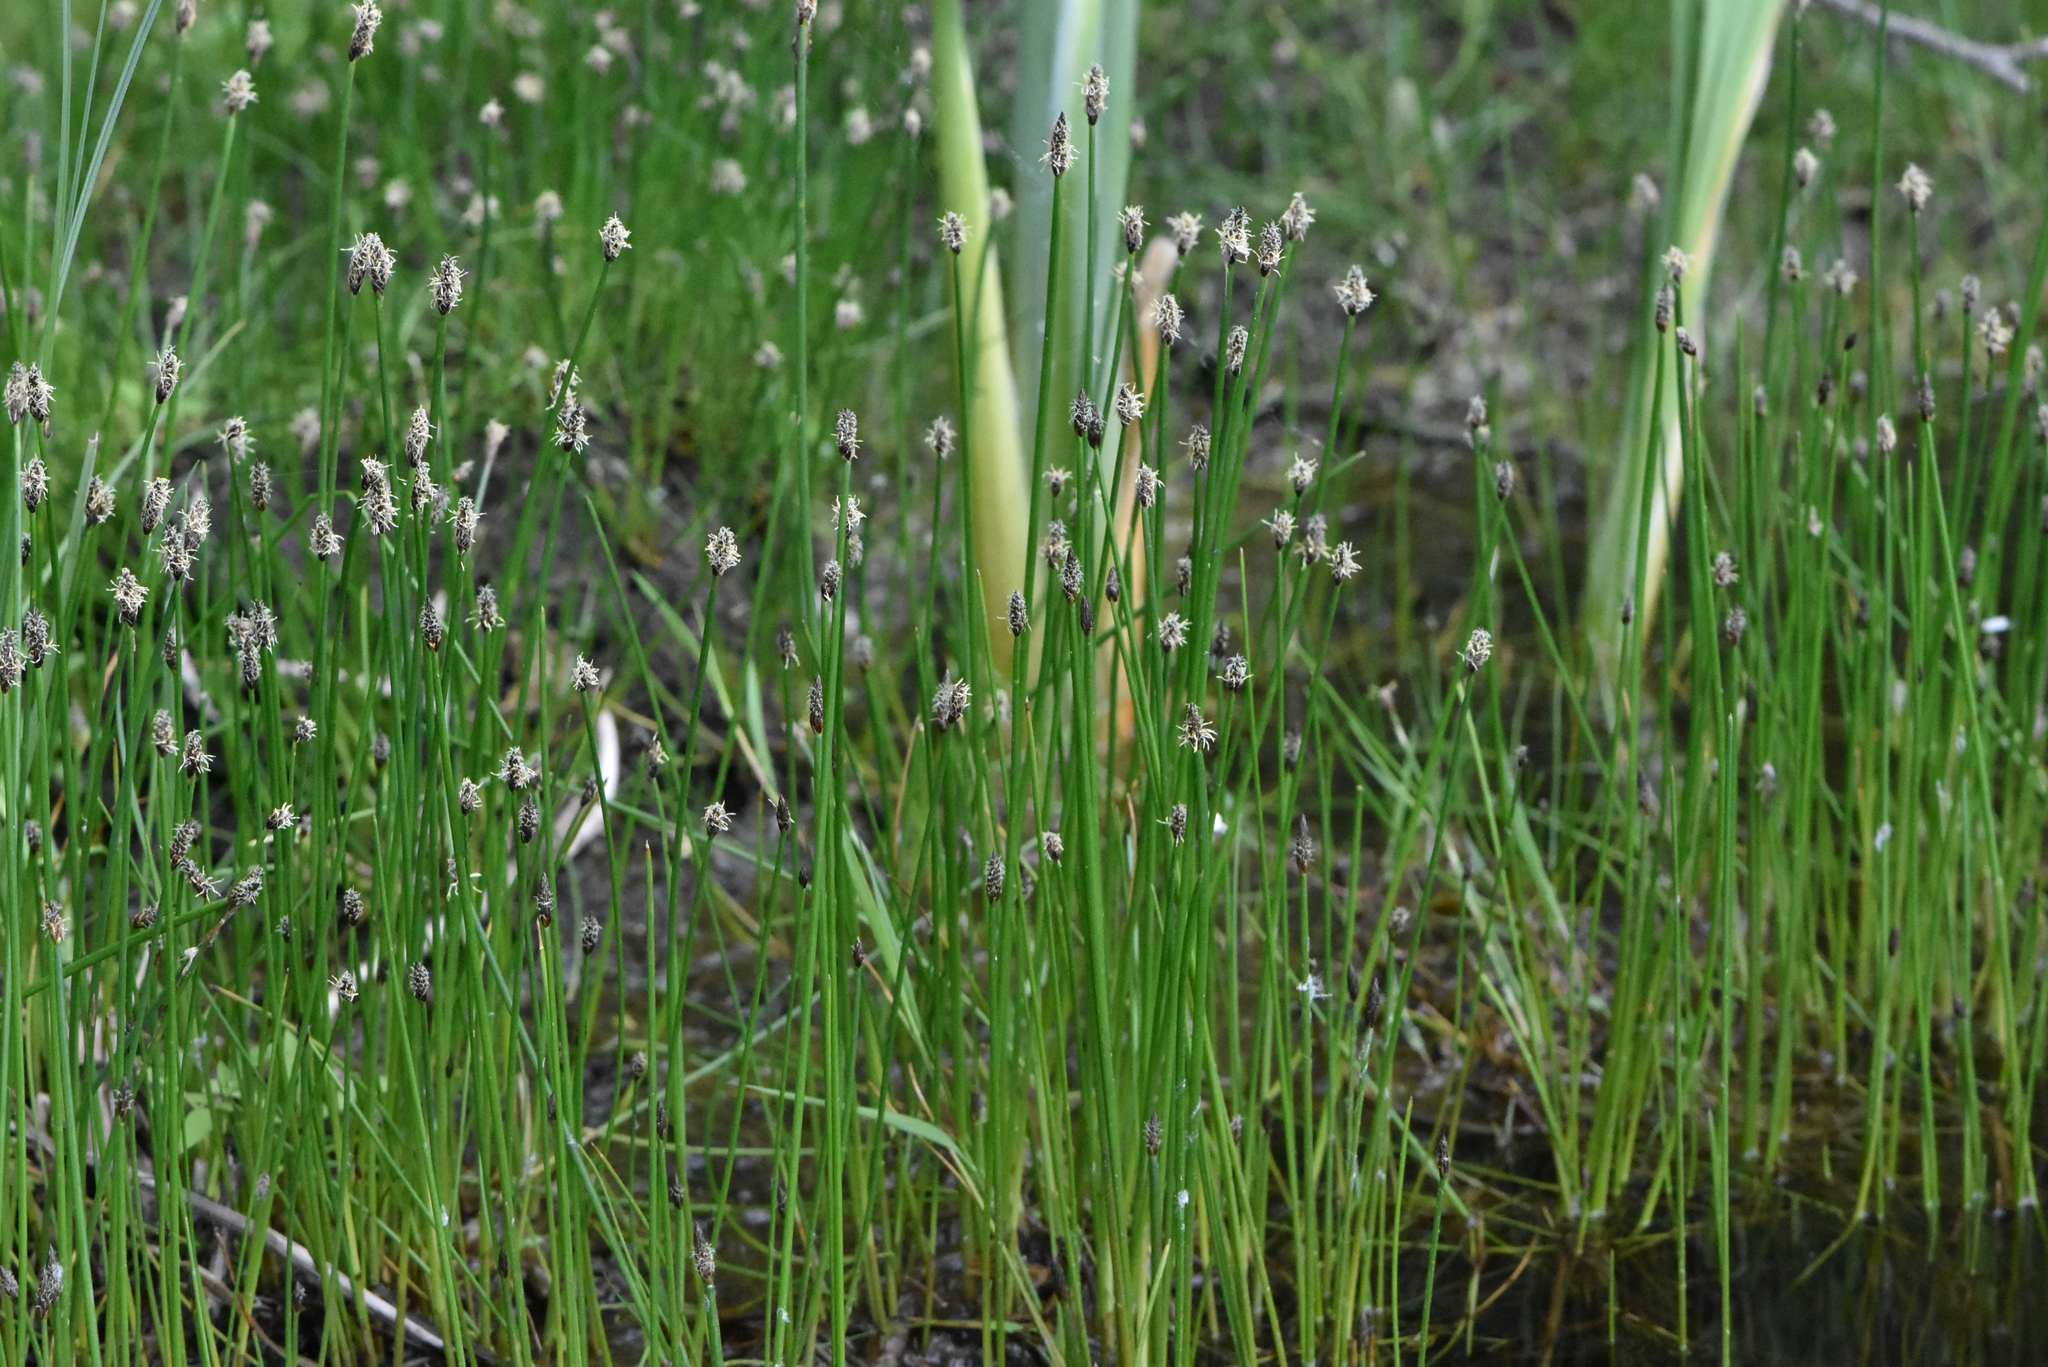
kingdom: Plantae
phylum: Tracheophyta
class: Liliopsida
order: Poales
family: Cyperaceae
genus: Eleocharis
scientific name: Eleocharis palustris
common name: Common spike-rush
